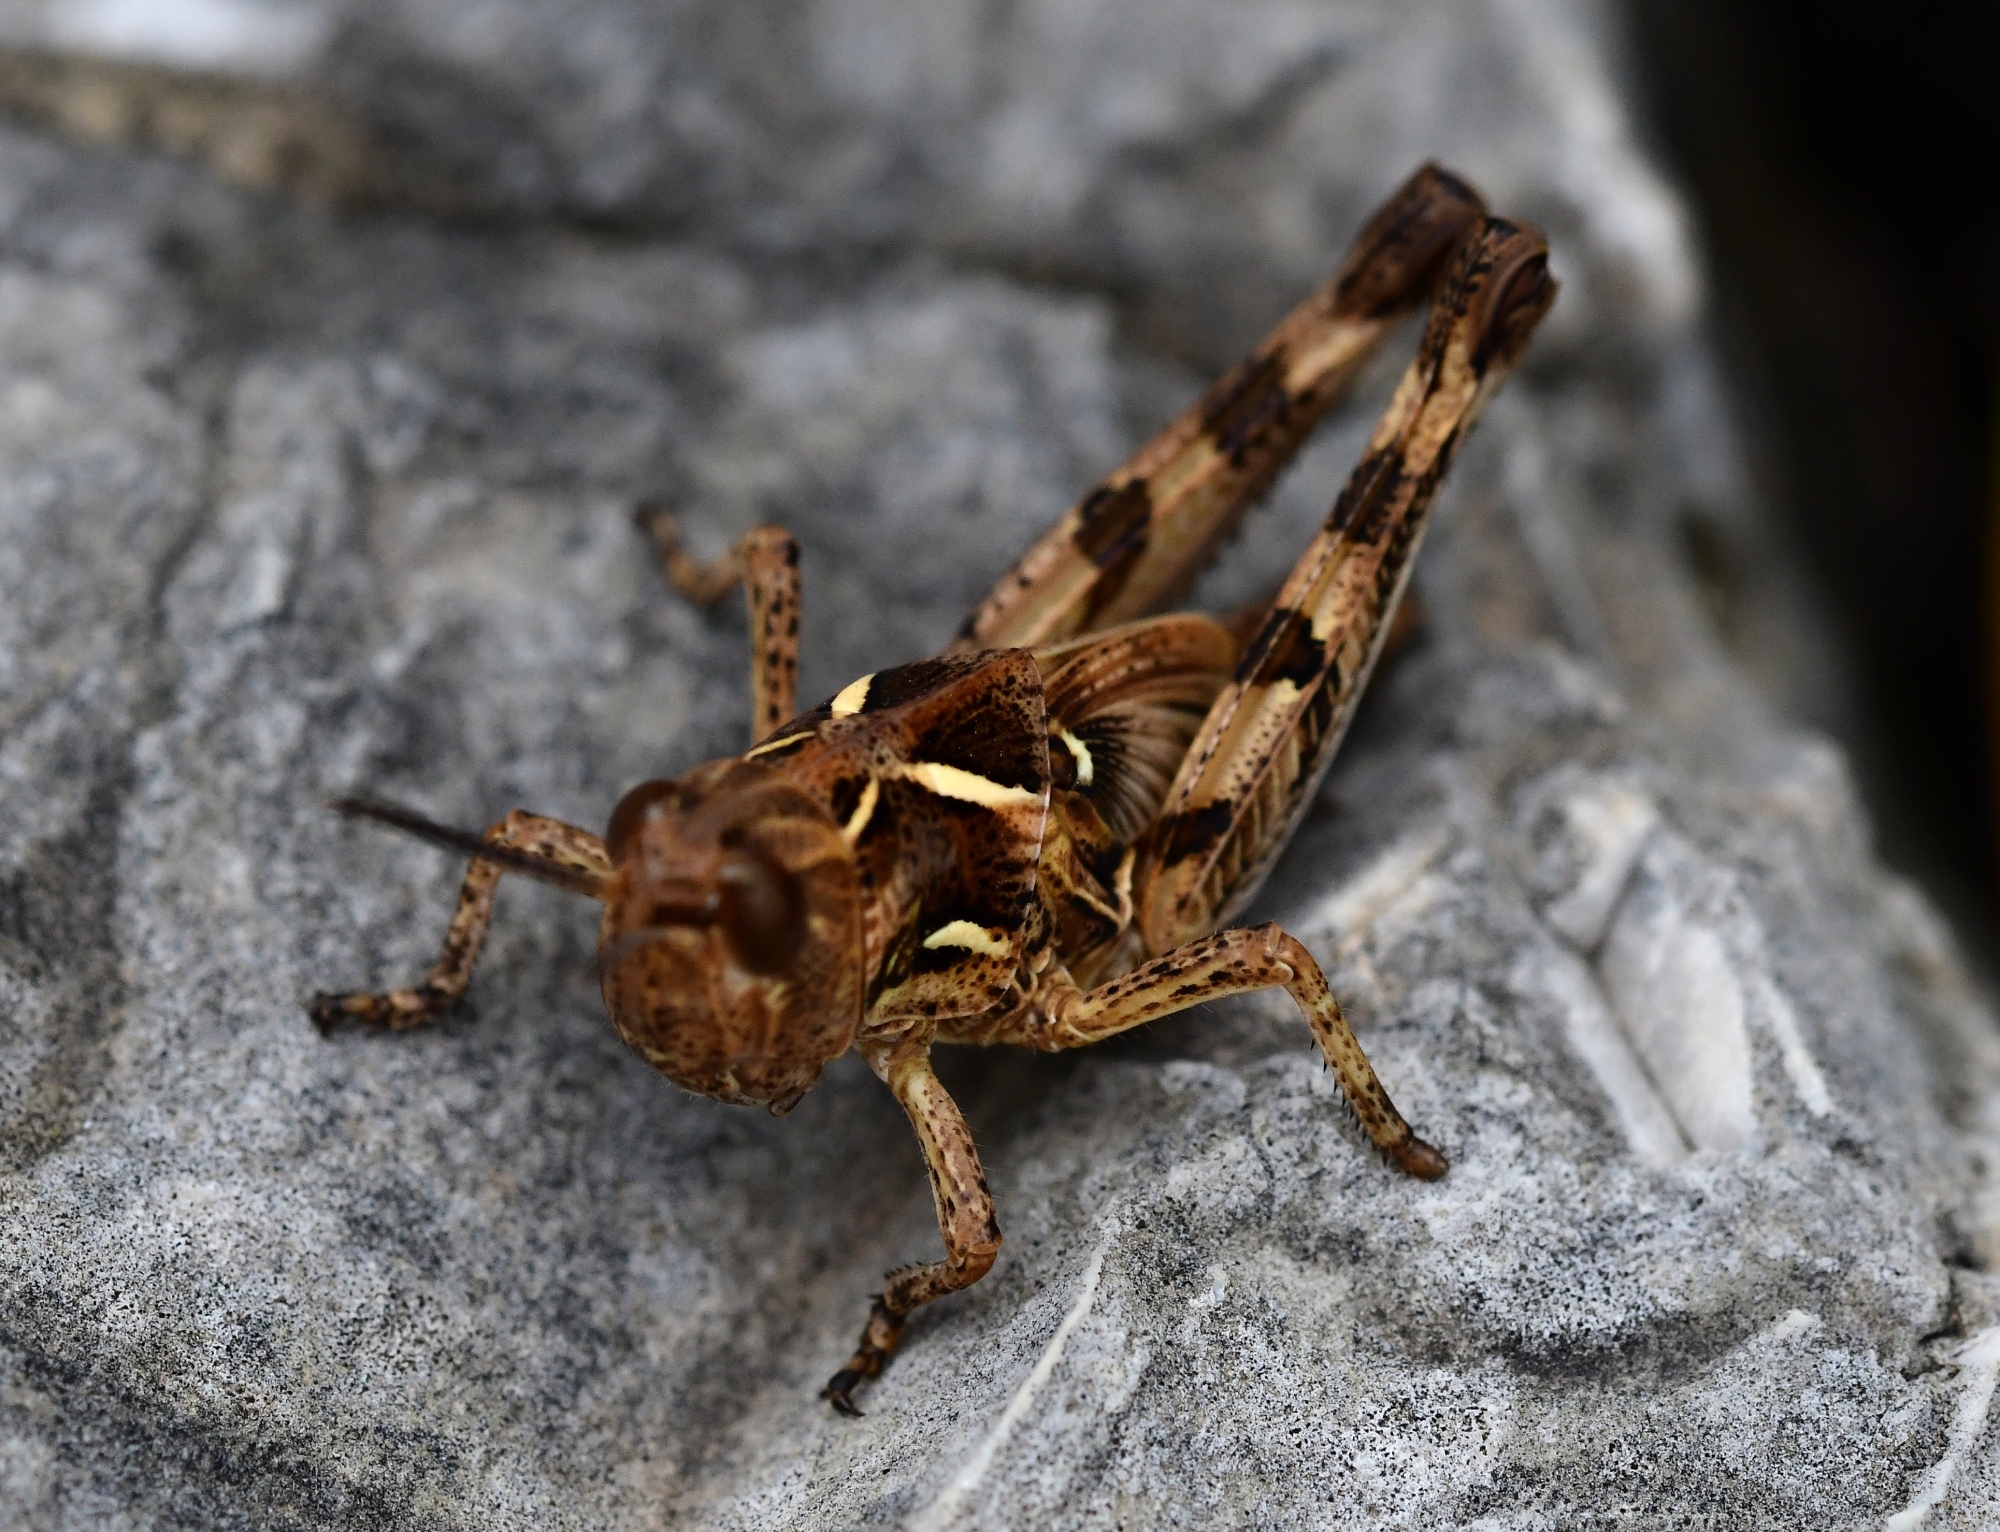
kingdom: Animalia
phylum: Arthropoda
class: Insecta
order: Orthoptera
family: Acrididae
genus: Dociostaurus
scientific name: Dociostaurus maroccanus
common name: Moroccan locust
